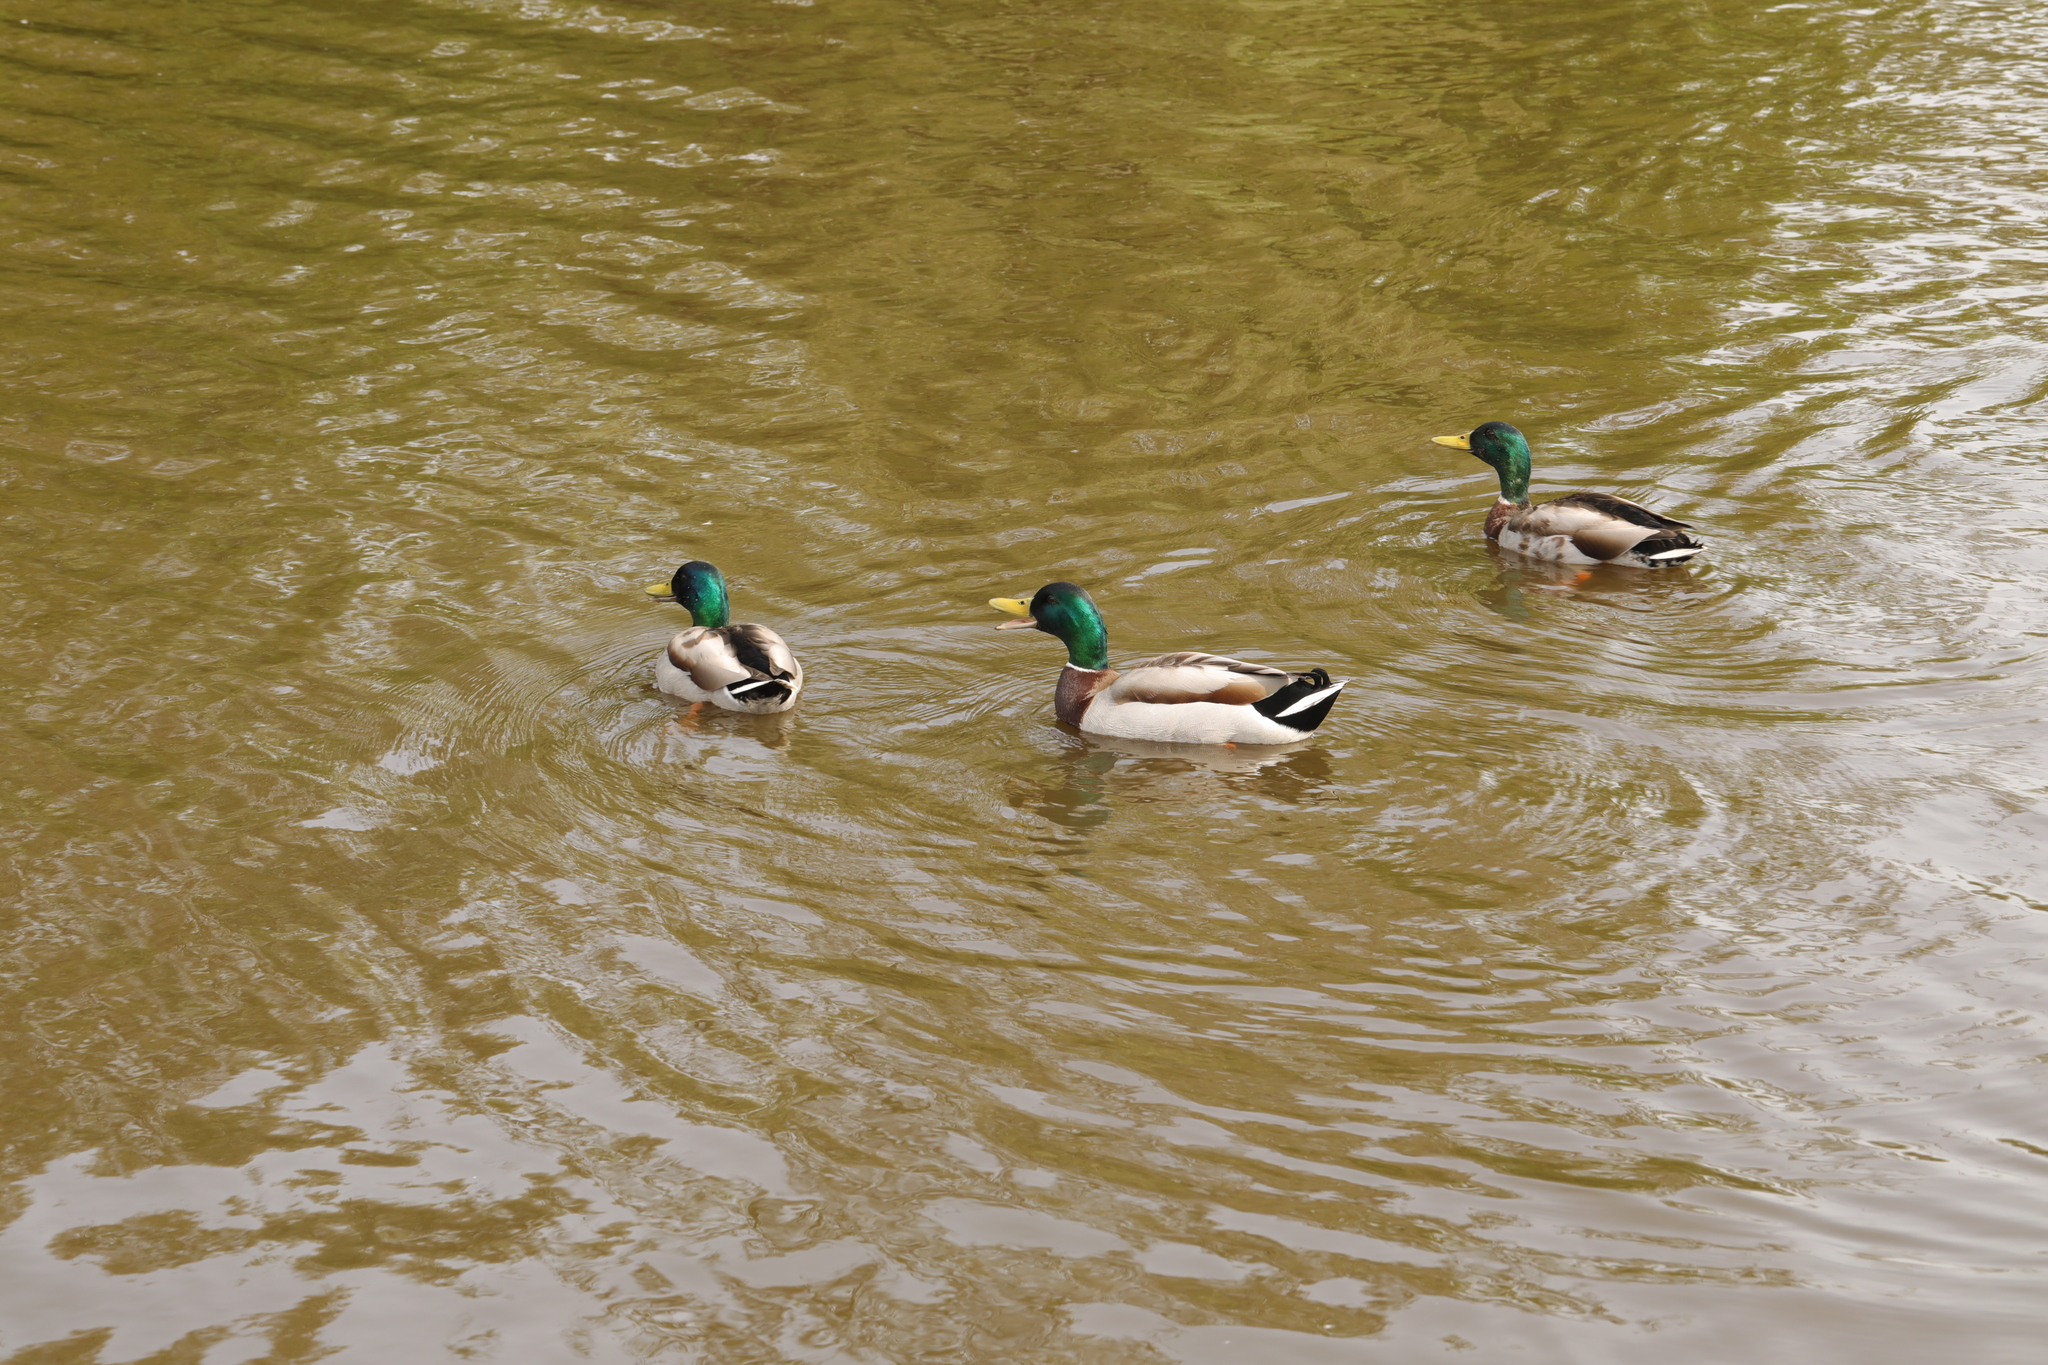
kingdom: Animalia
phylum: Chordata
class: Aves
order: Anseriformes
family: Anatidae
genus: Anas
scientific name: Anas platyrhynchos
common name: Mallard
